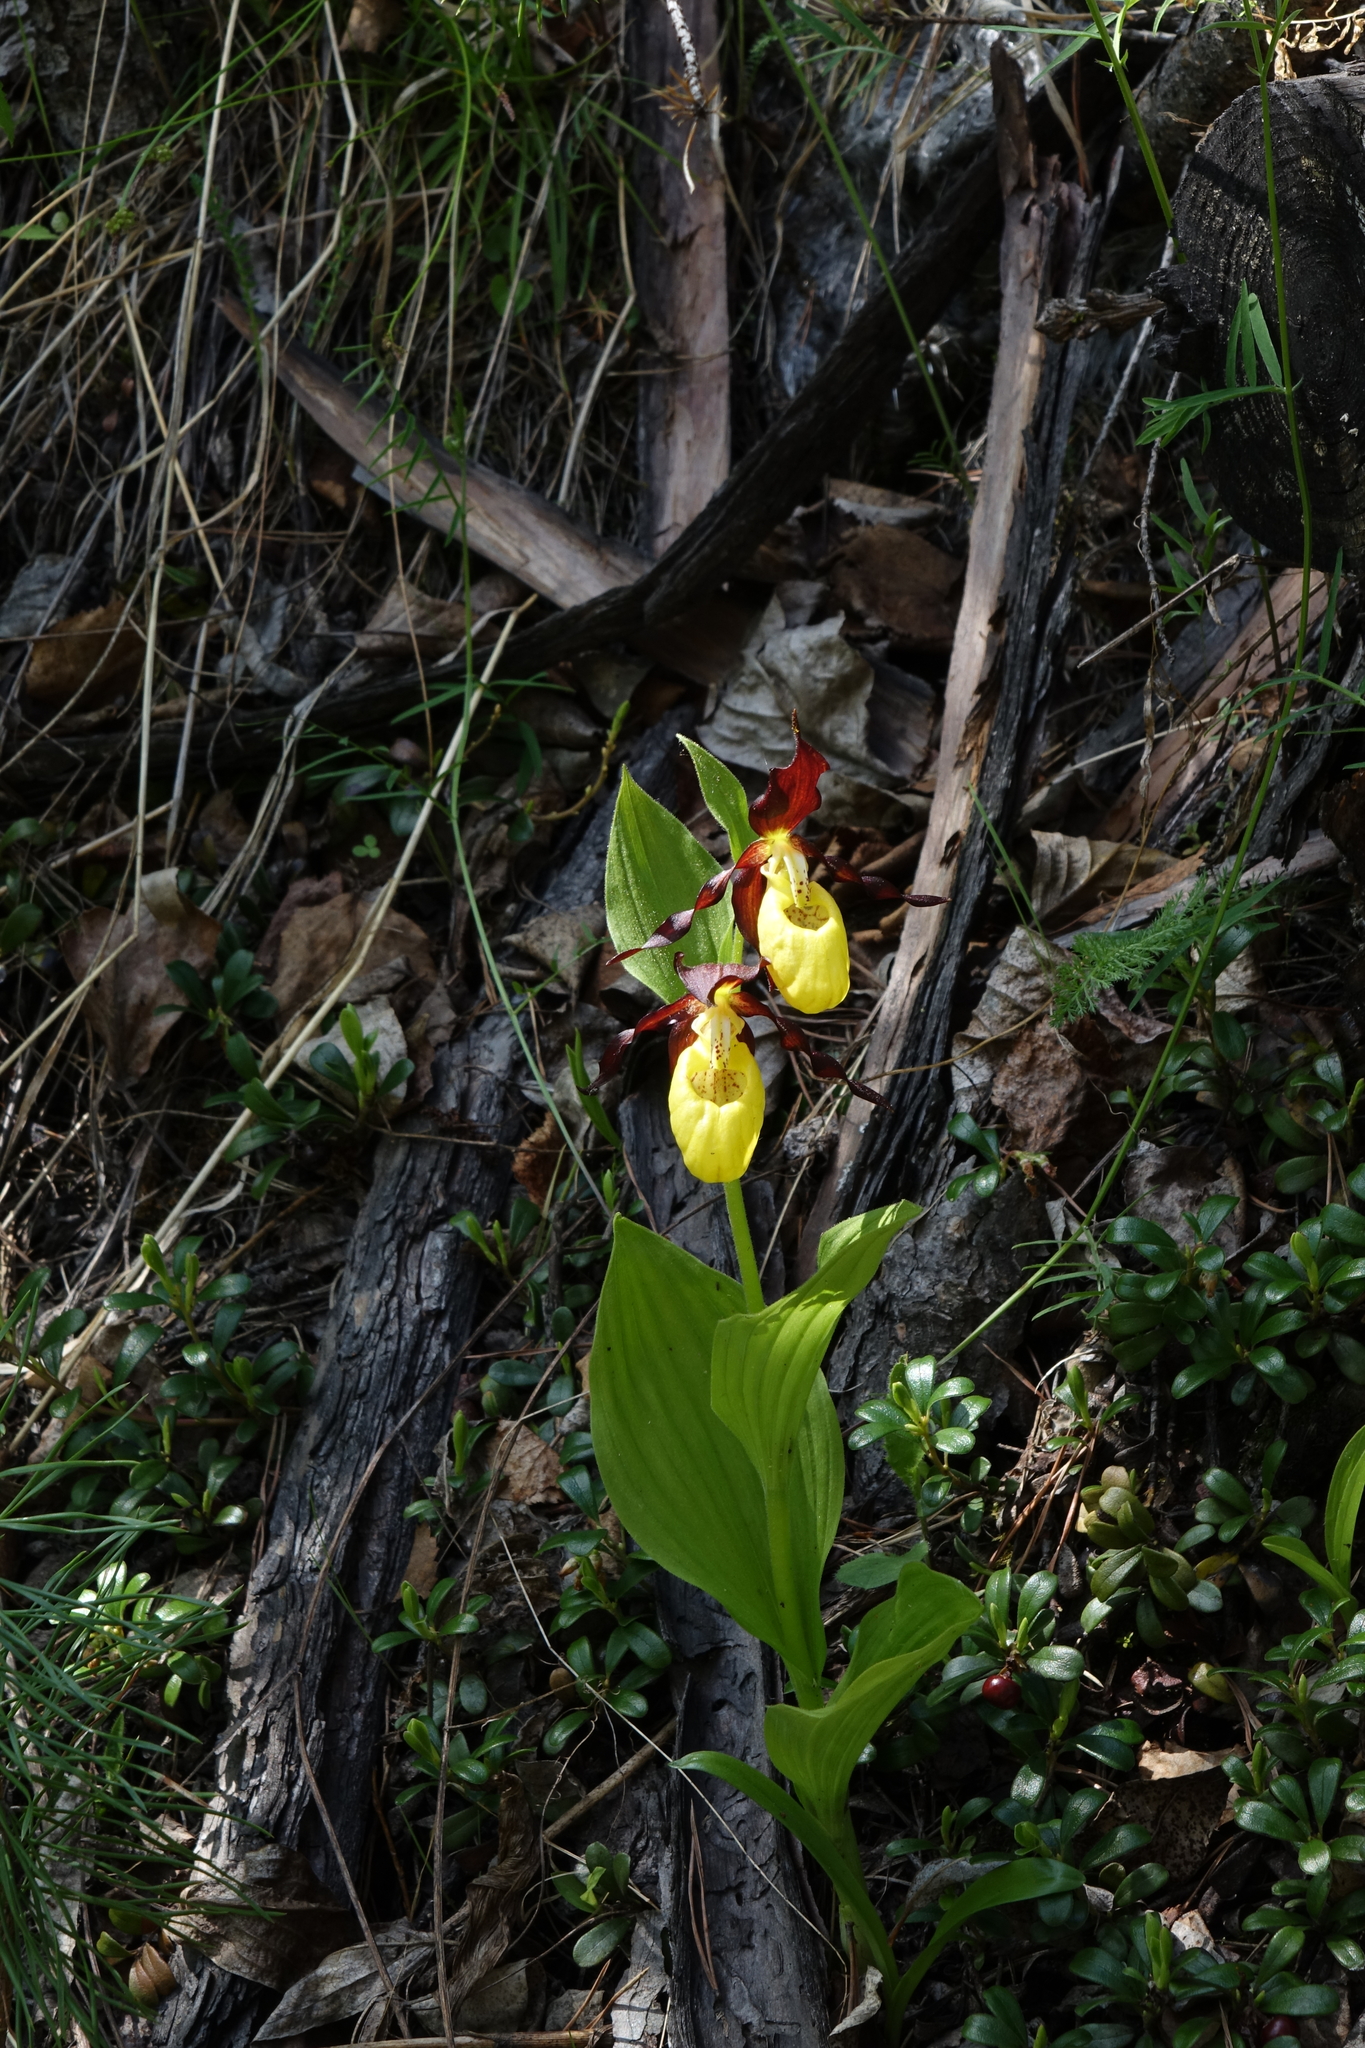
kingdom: Plantae
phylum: Tracheophyta
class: Liliopsida
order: Asparagales
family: Orchidaceae
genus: Cypripedium
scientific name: Cypripedium calceolus
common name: Lady's-slipper
